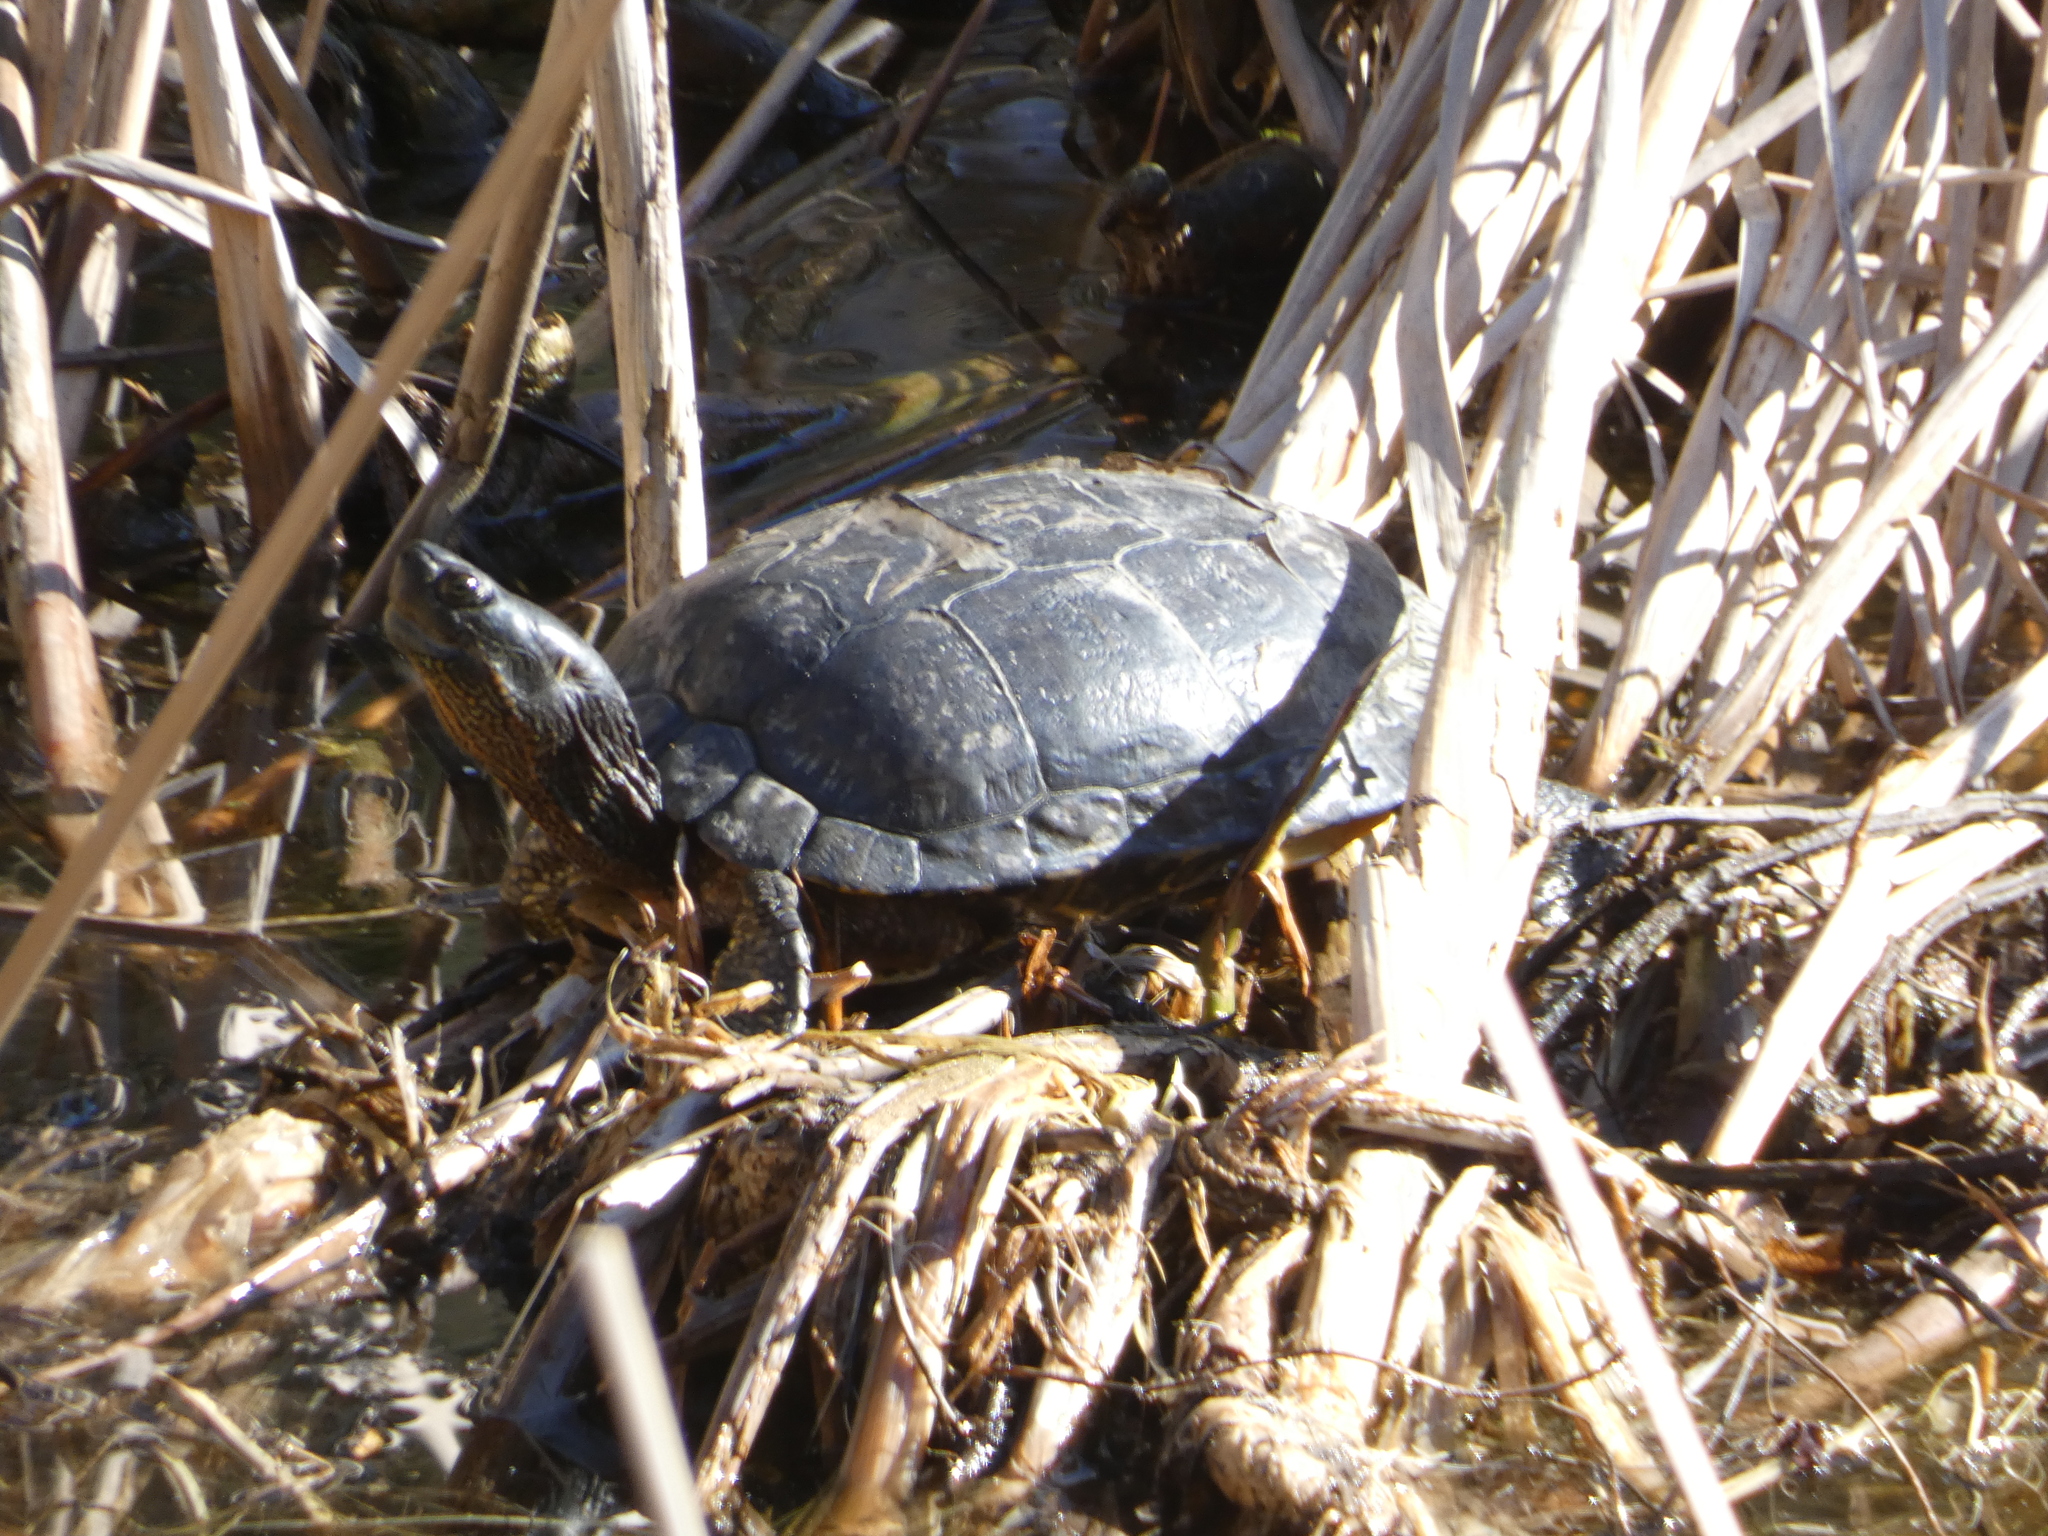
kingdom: Animalia
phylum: Chordata
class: Testudines
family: Emydidae
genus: Trachemys
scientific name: Trachemys scripta
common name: Slider
